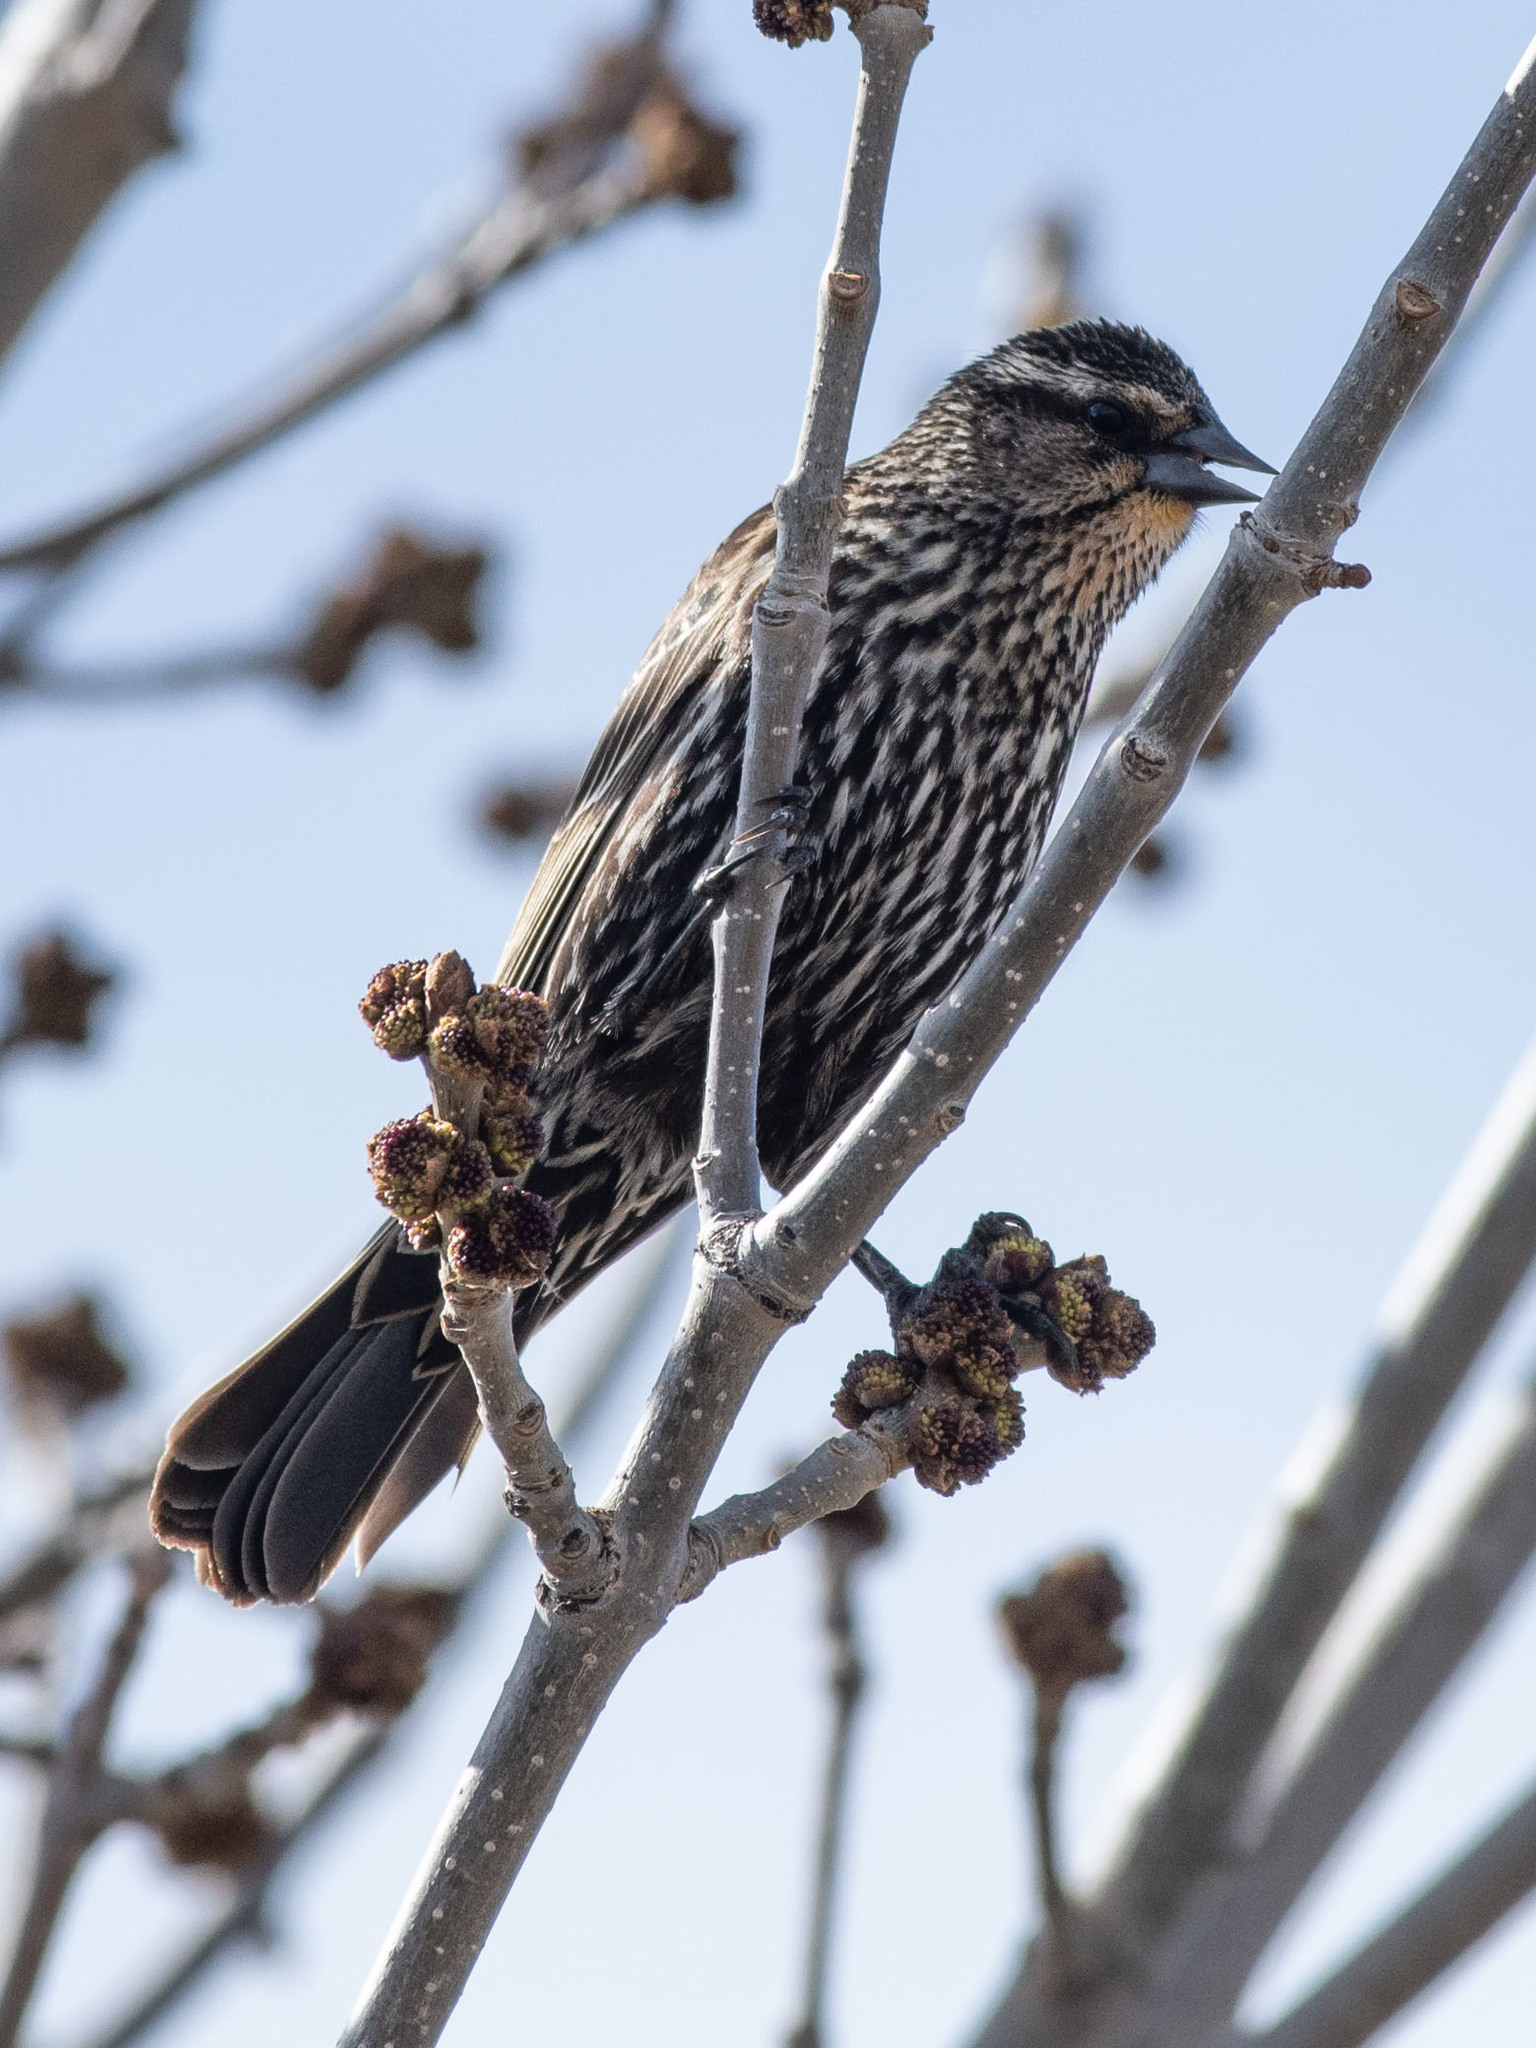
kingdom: Animalia
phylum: Chordata
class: Aves
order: Passeriformes
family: Icteridae
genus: Agelaius
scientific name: Agelaius phoeniceus
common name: Red-winged blackbird
